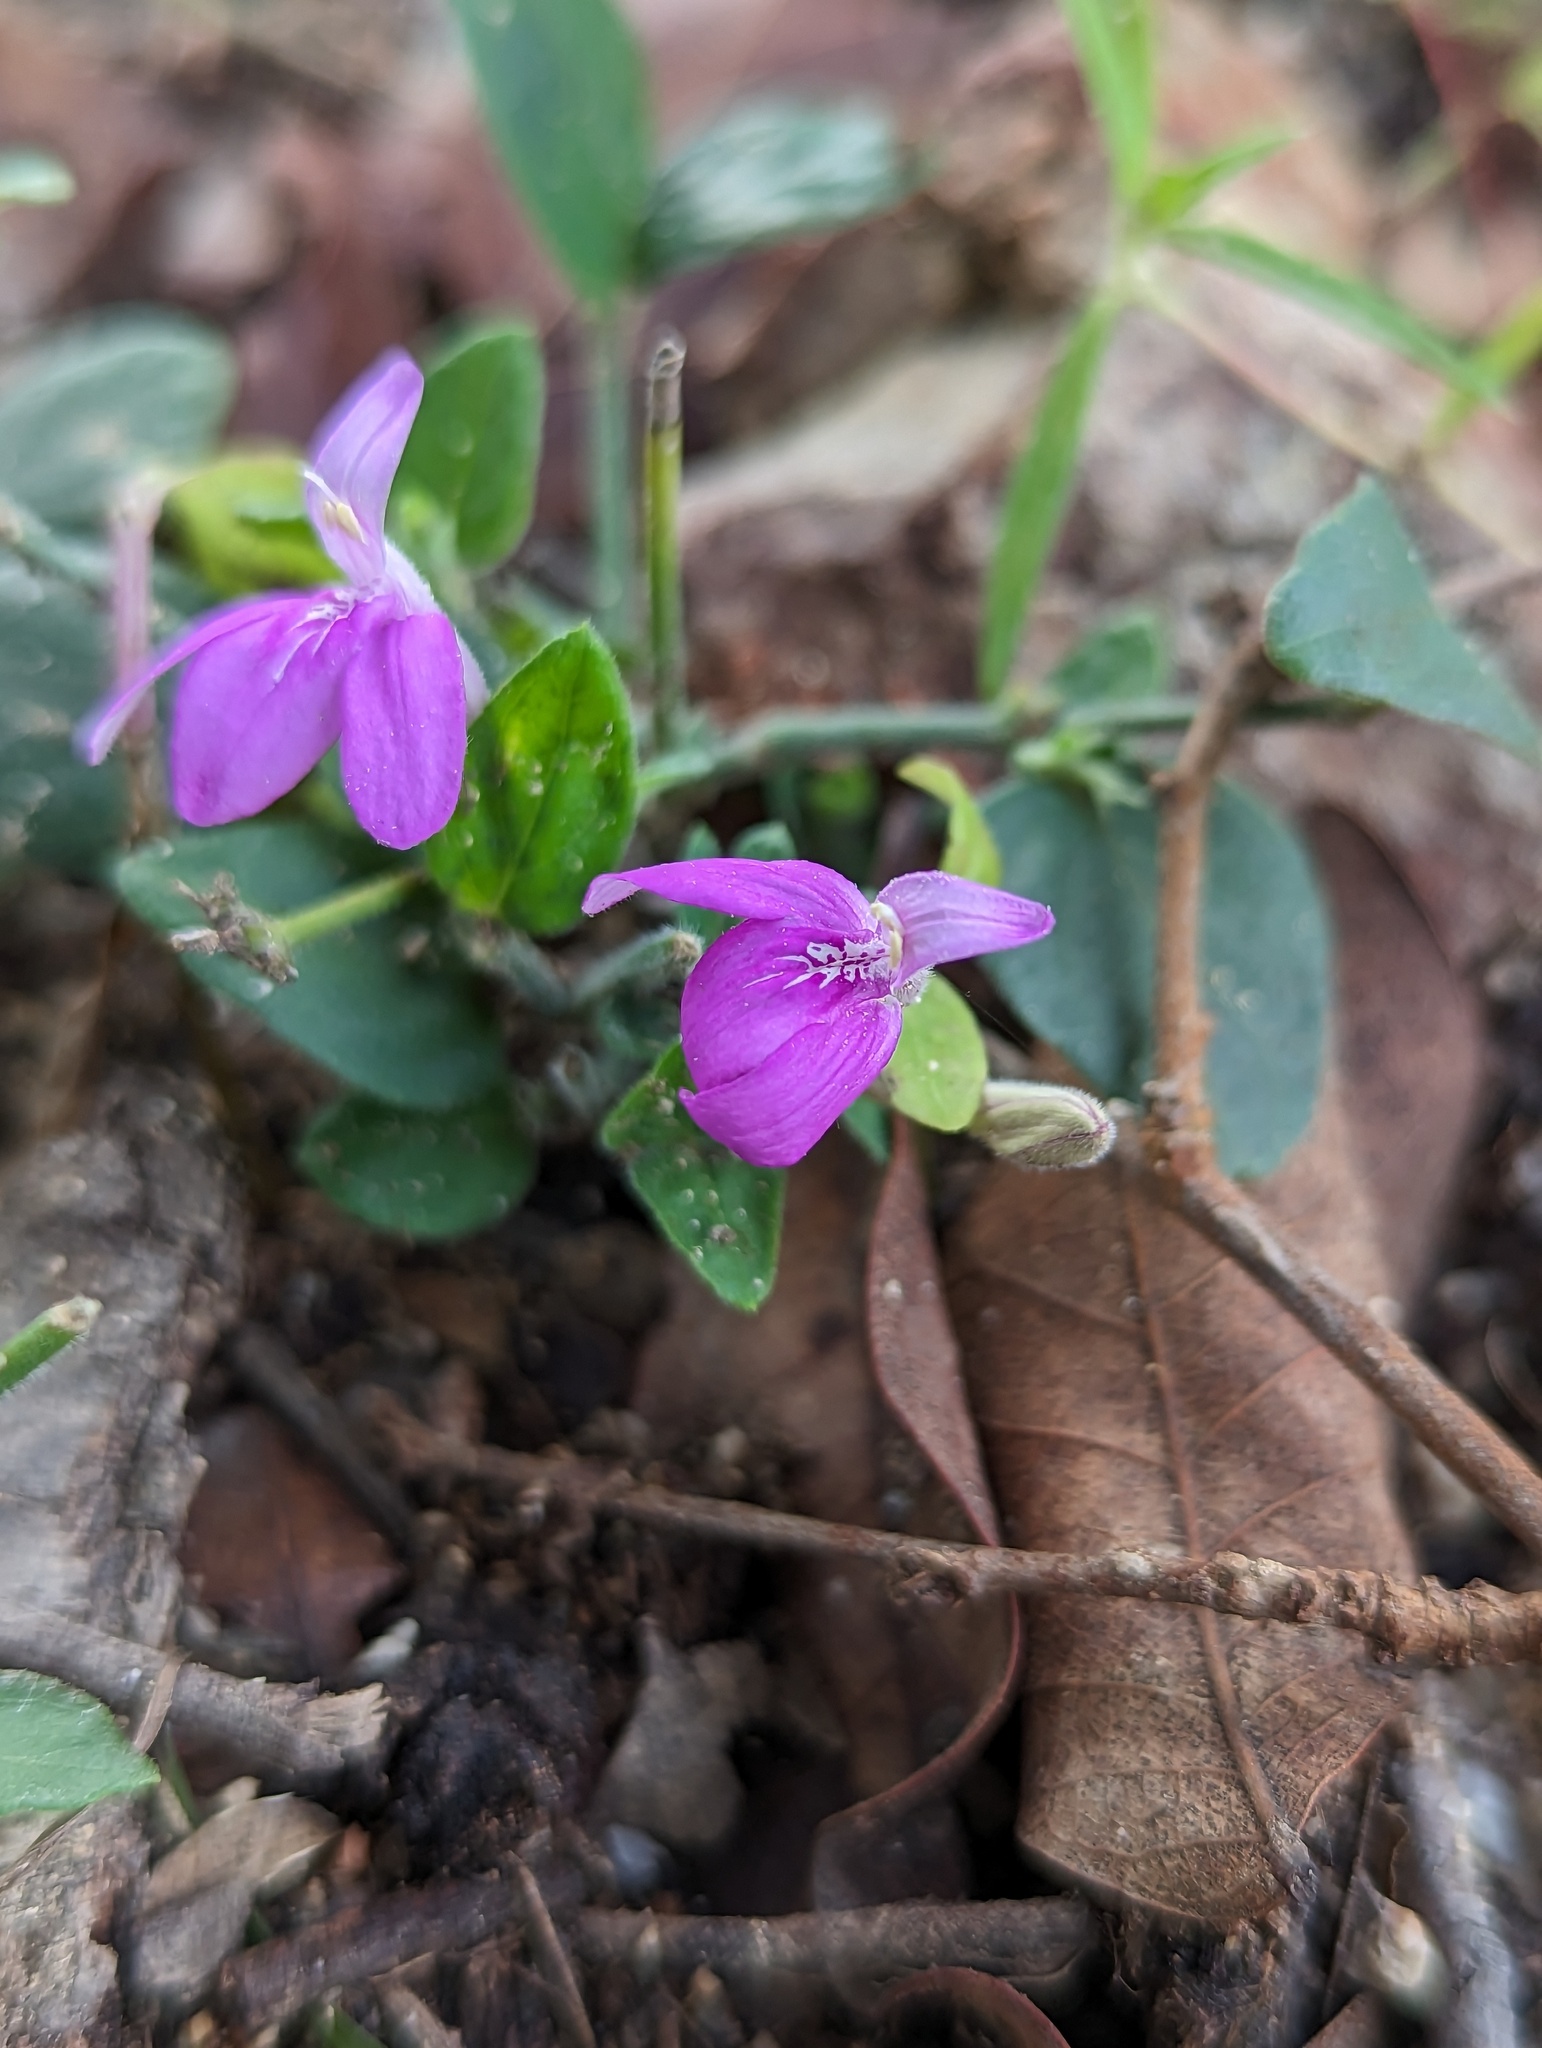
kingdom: Plantae
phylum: Tracheophyta
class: Magnoliopsida
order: Lamiales
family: Acanthaceae
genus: Dianthera
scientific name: Dianthera incerta
